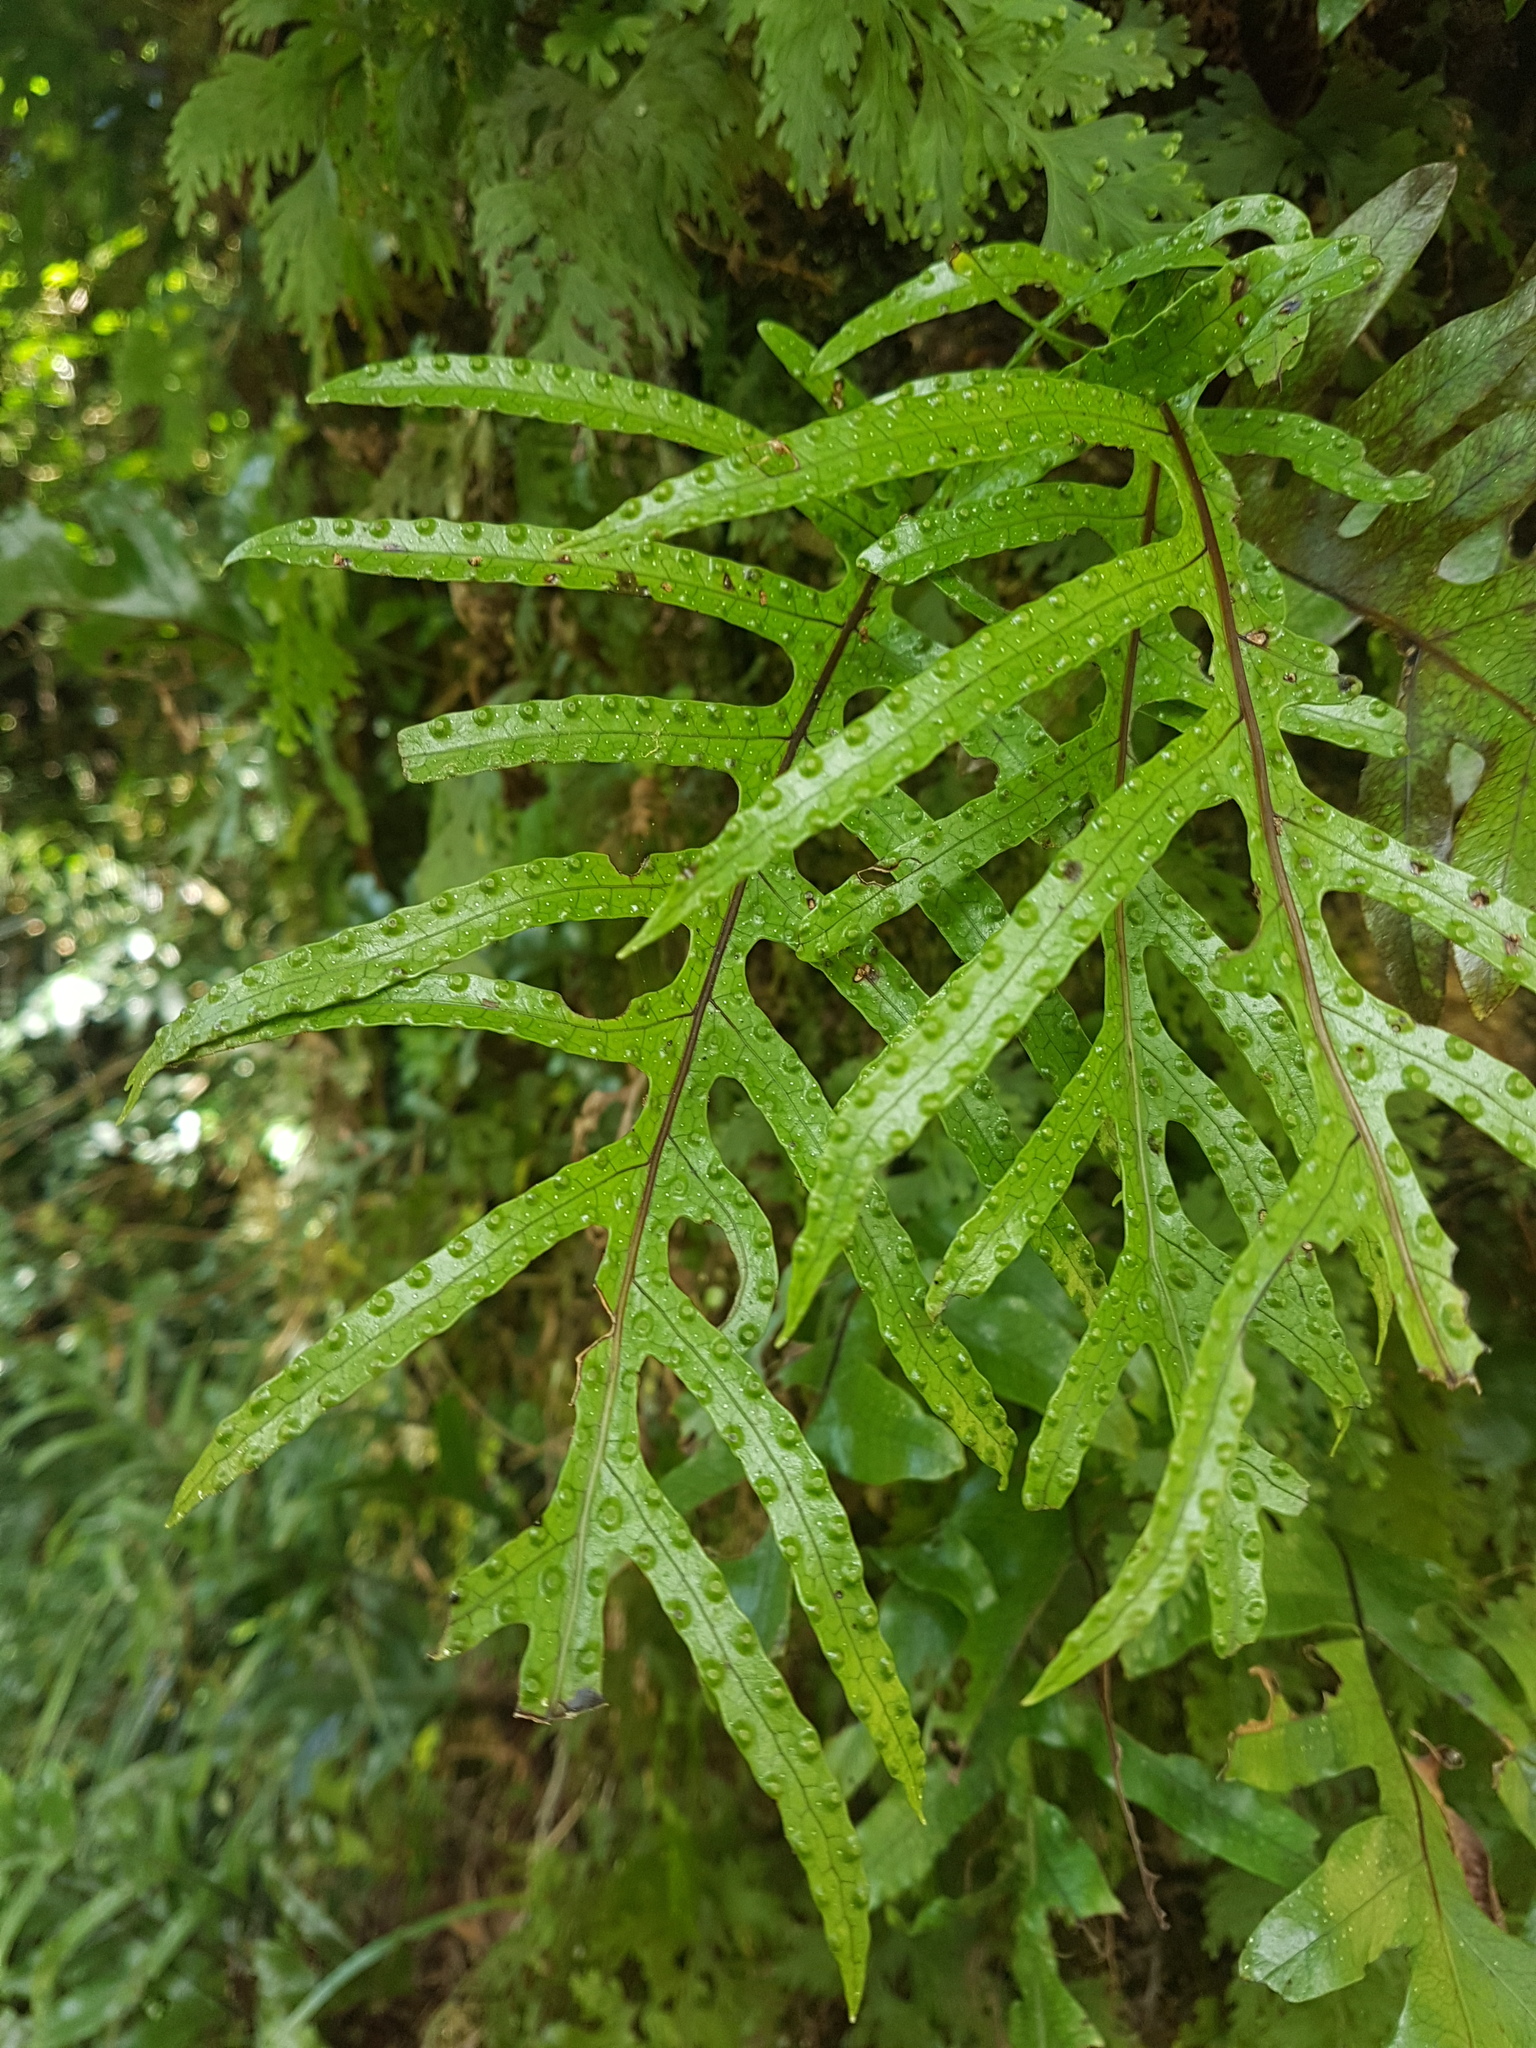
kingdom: Plantae
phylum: Tracheophyta
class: Polypodiopsida
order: Polypodiales
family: Polypodiaceae
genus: Lecanopteris
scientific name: Lecanopteris pustulata
